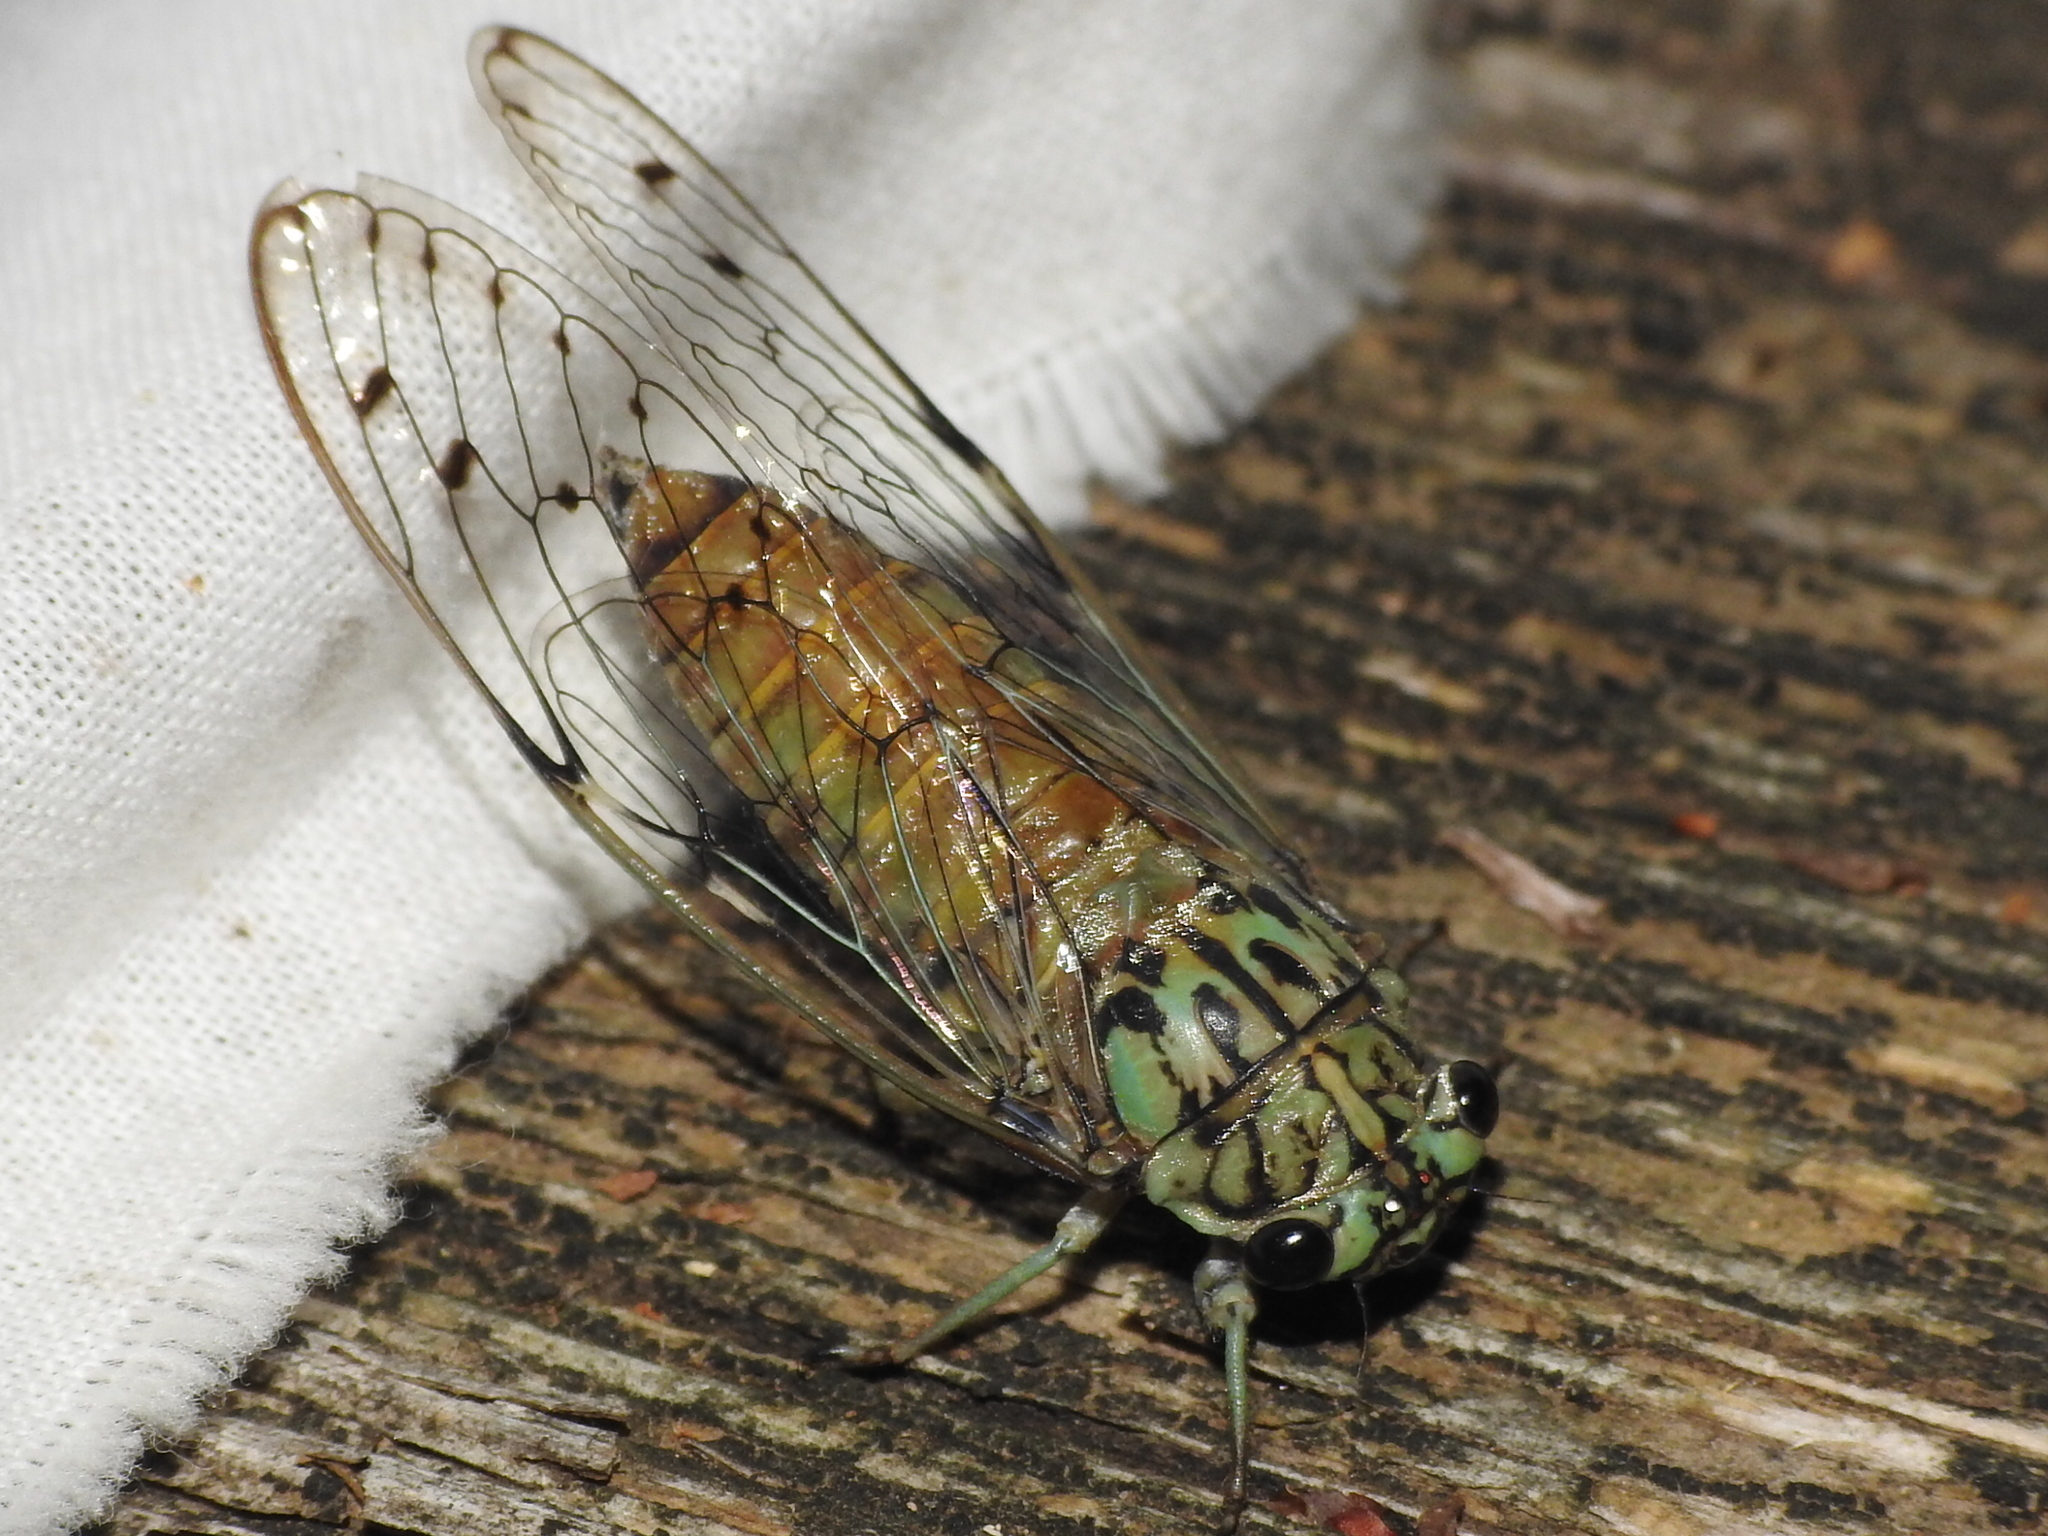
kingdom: Animalia
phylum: Arthropoda
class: Insecta
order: Hemiptera
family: Cicadidae
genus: Neocicada
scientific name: Neocicada hieroglyphica
